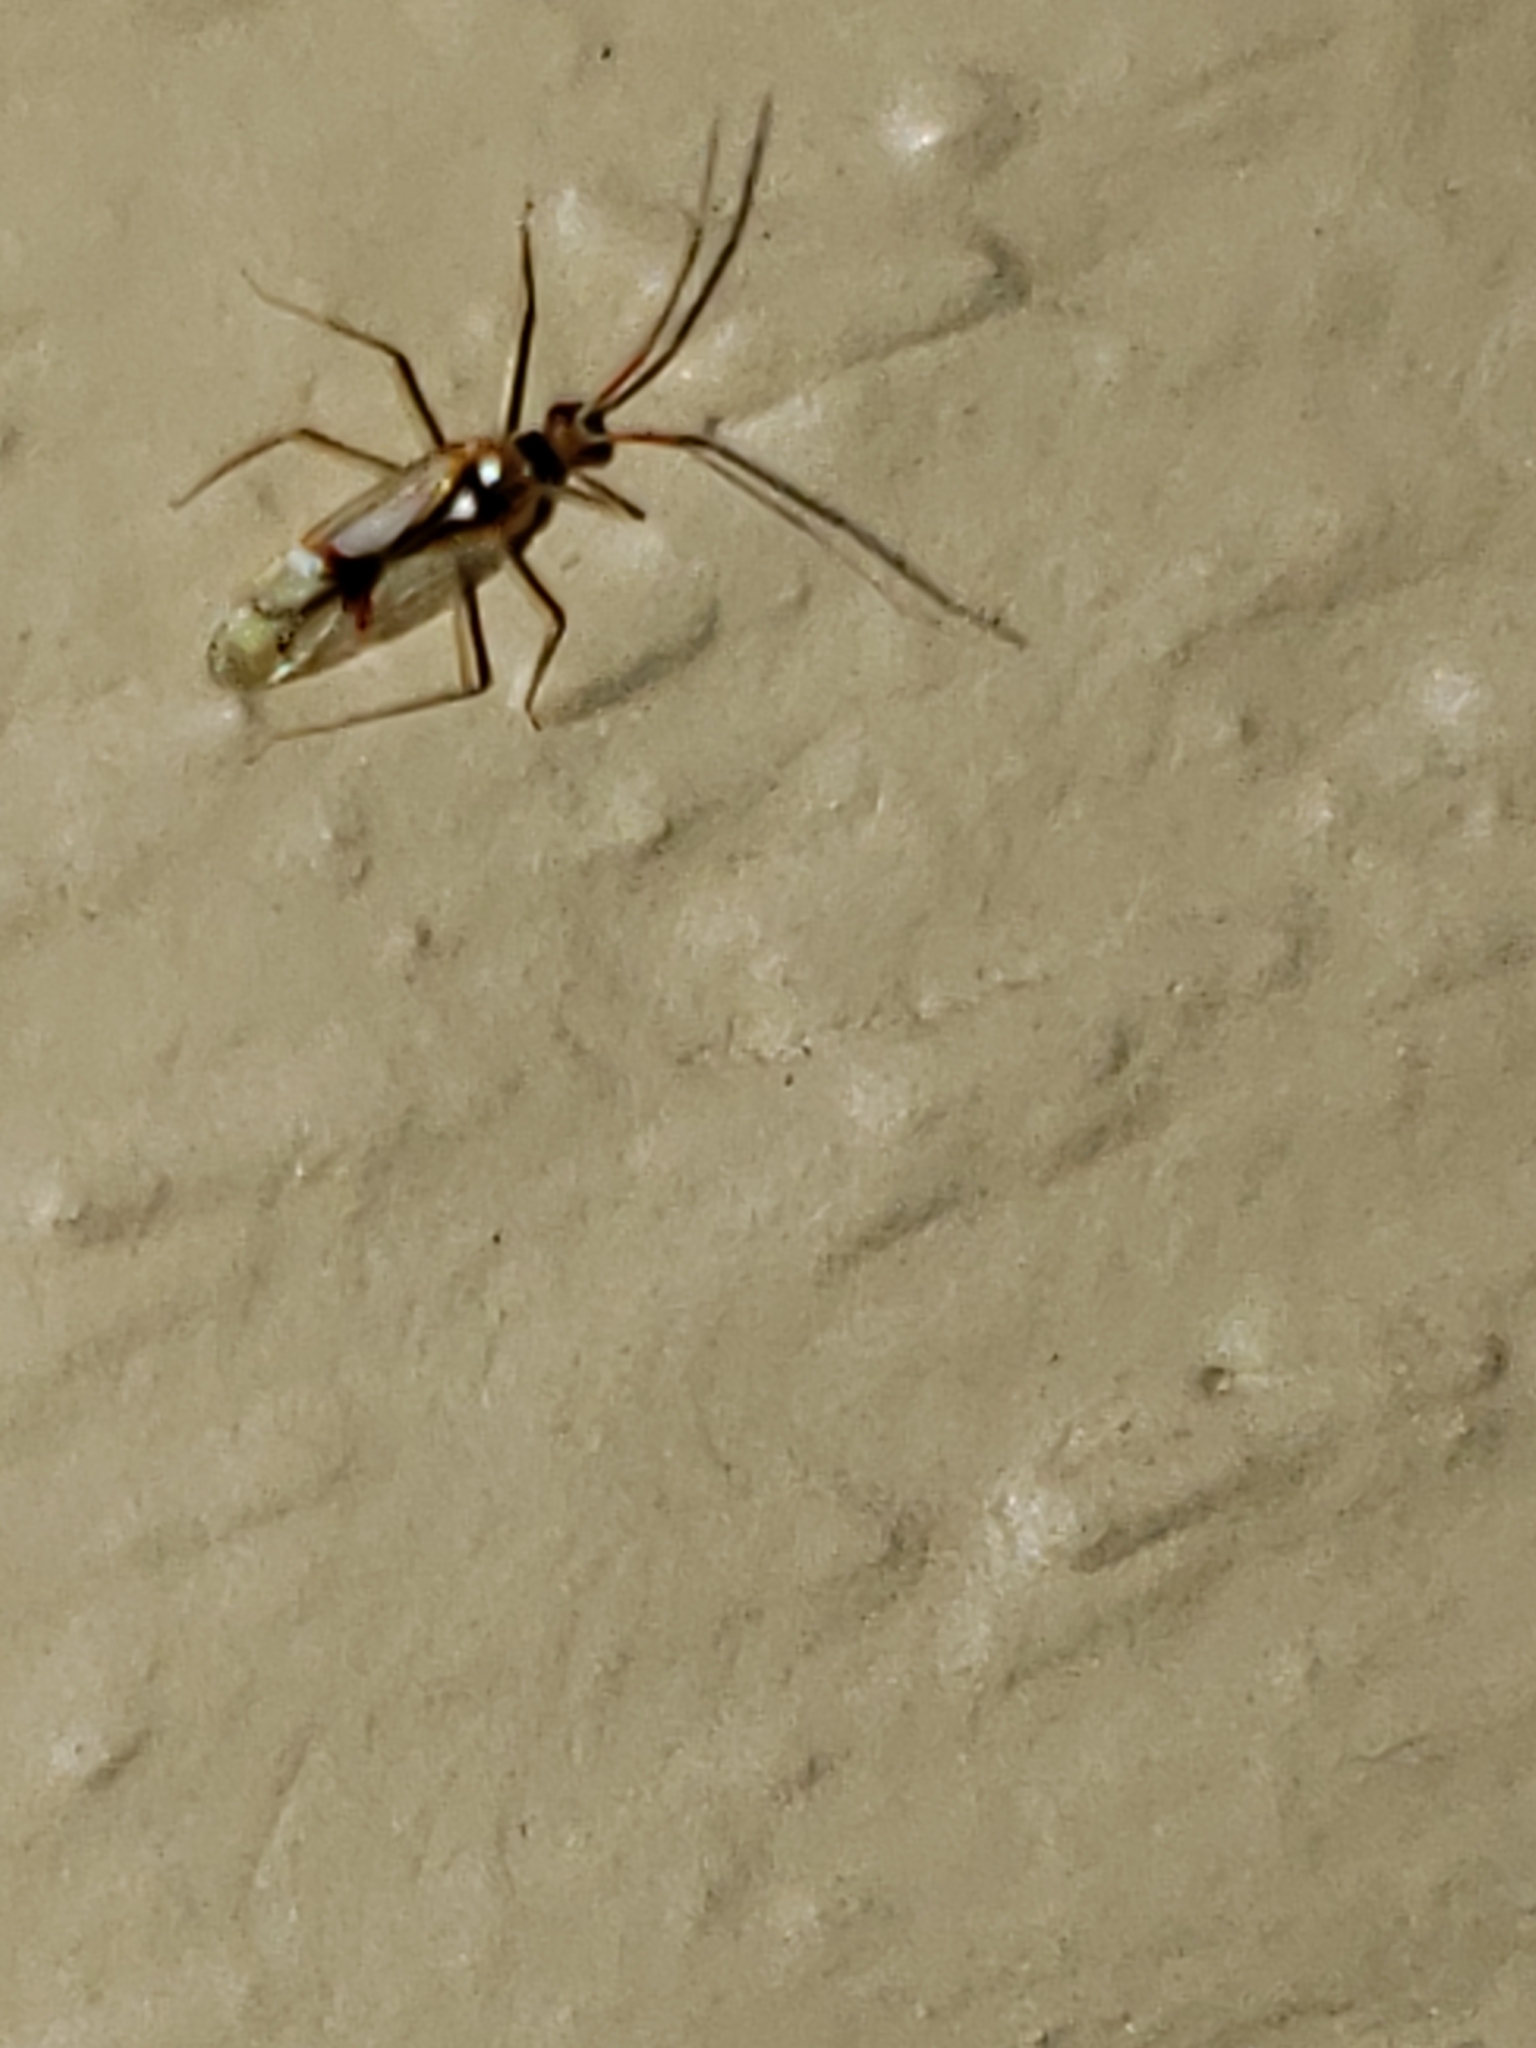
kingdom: Animalia
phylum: Arthropoda
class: Insecta
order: Hemiptera
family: Miridae
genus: Hyaliodes
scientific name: Hyaliodes harti
